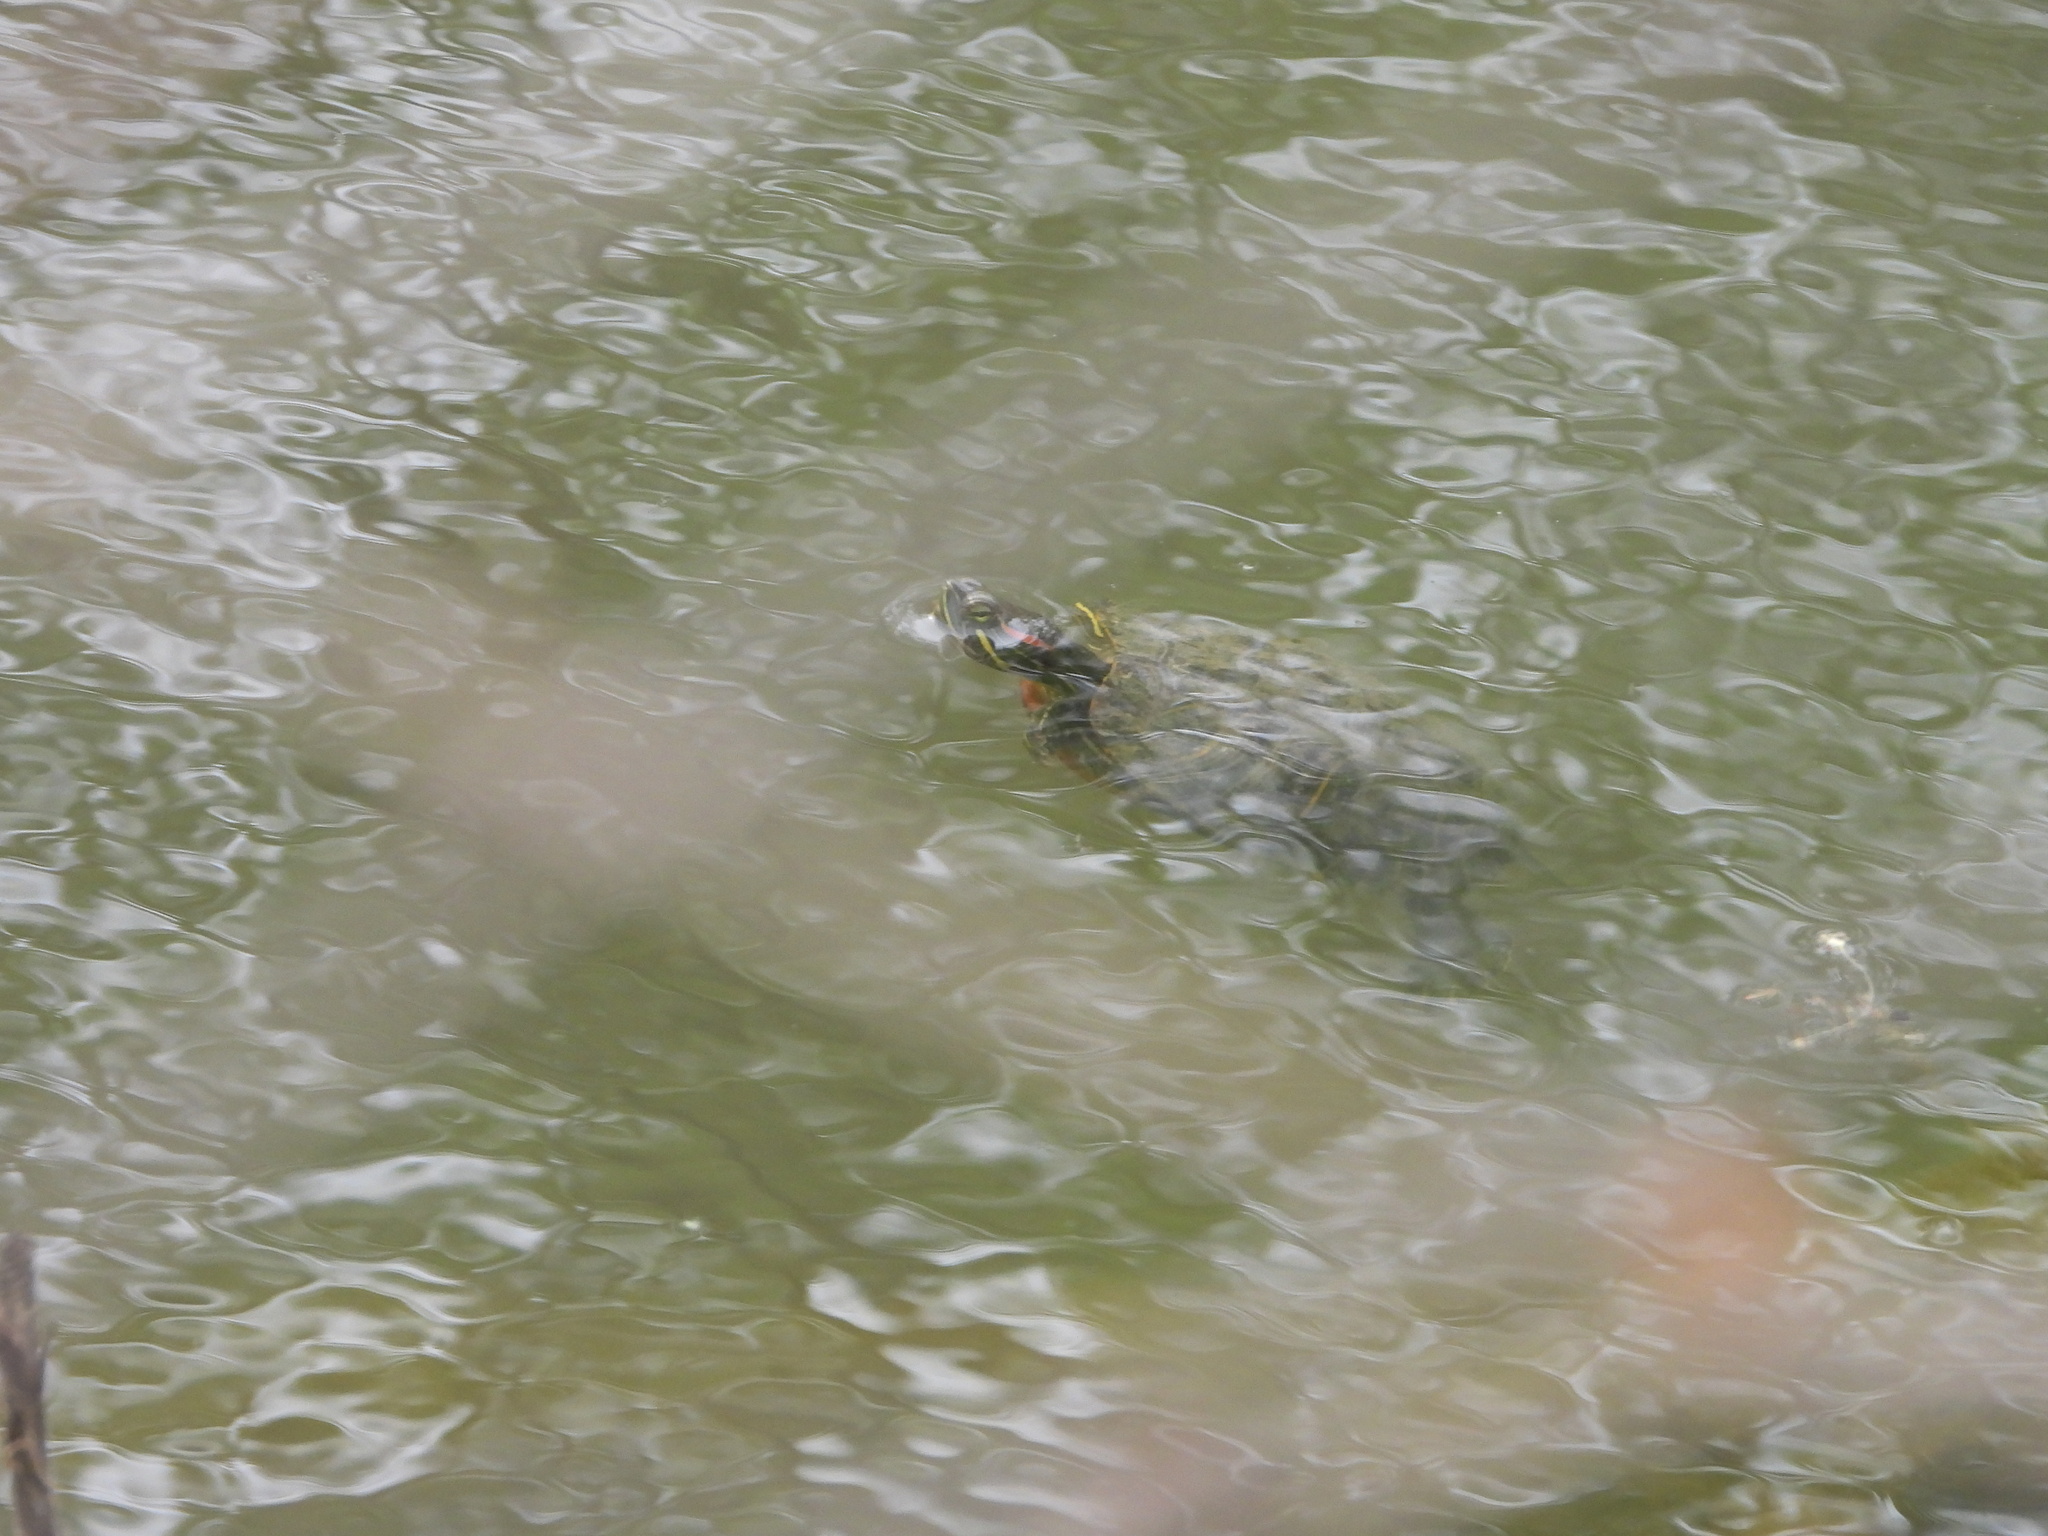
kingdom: Animalia
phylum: Chordata
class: Testudines
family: Emydidae
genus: Trachemys
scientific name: Trachemys scripta
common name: Slider
